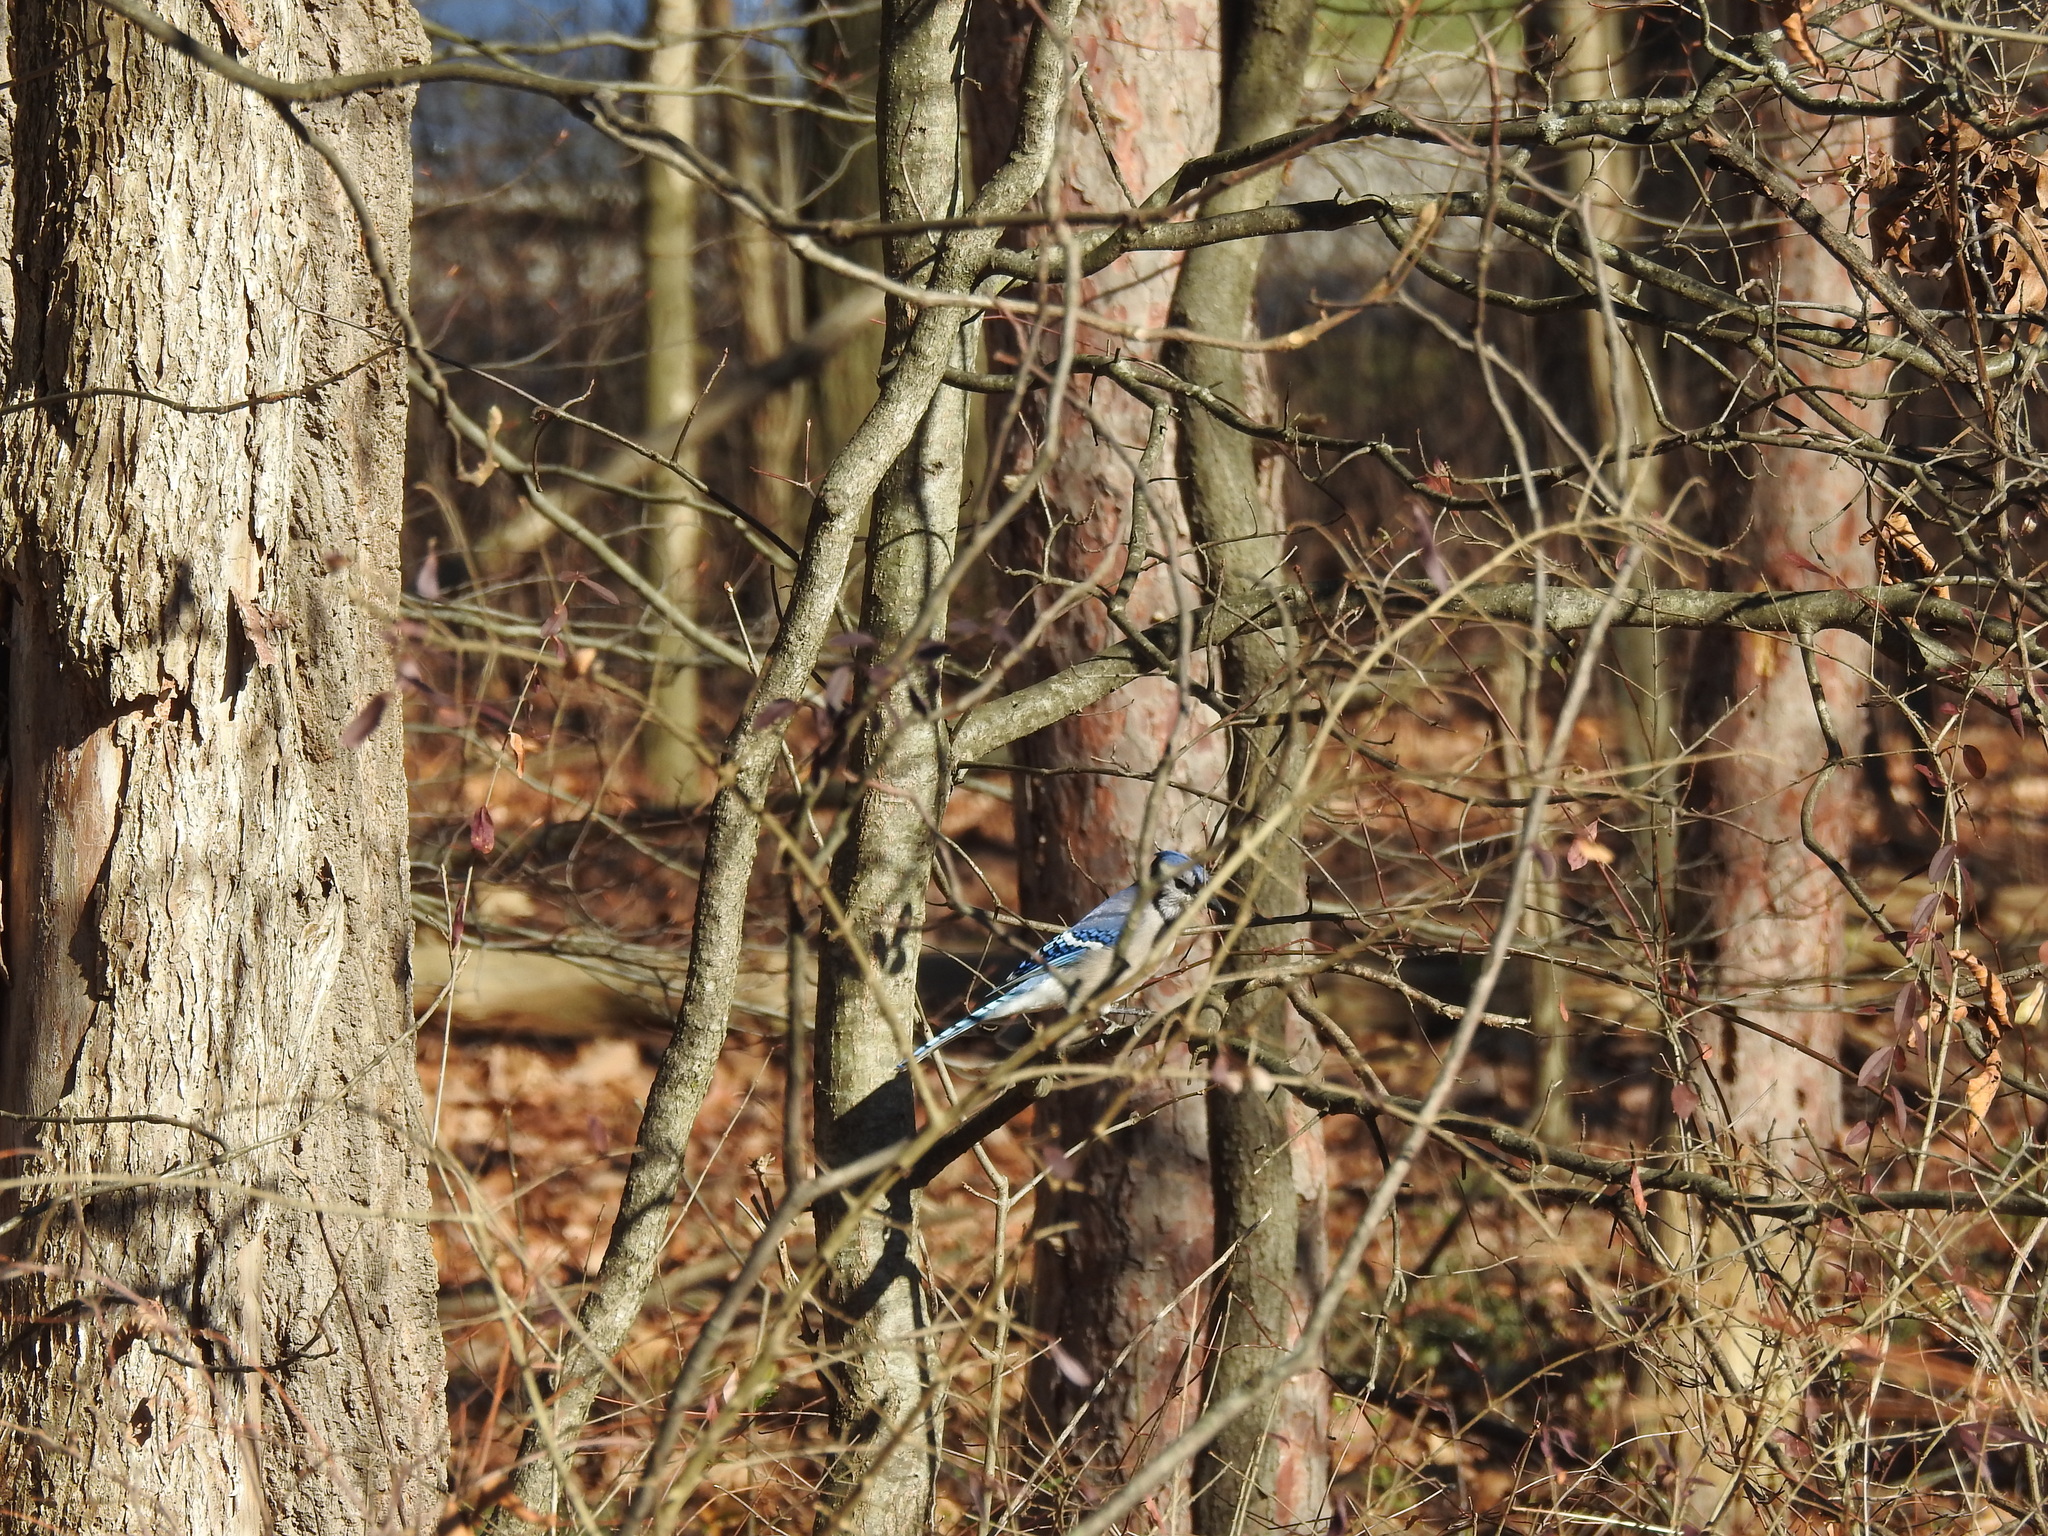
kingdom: Animalia
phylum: Chordata
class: Aves
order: Passeriformes
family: Corvidae
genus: Cyanocitta
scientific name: Cyanocitta cristata
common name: Blue jay
